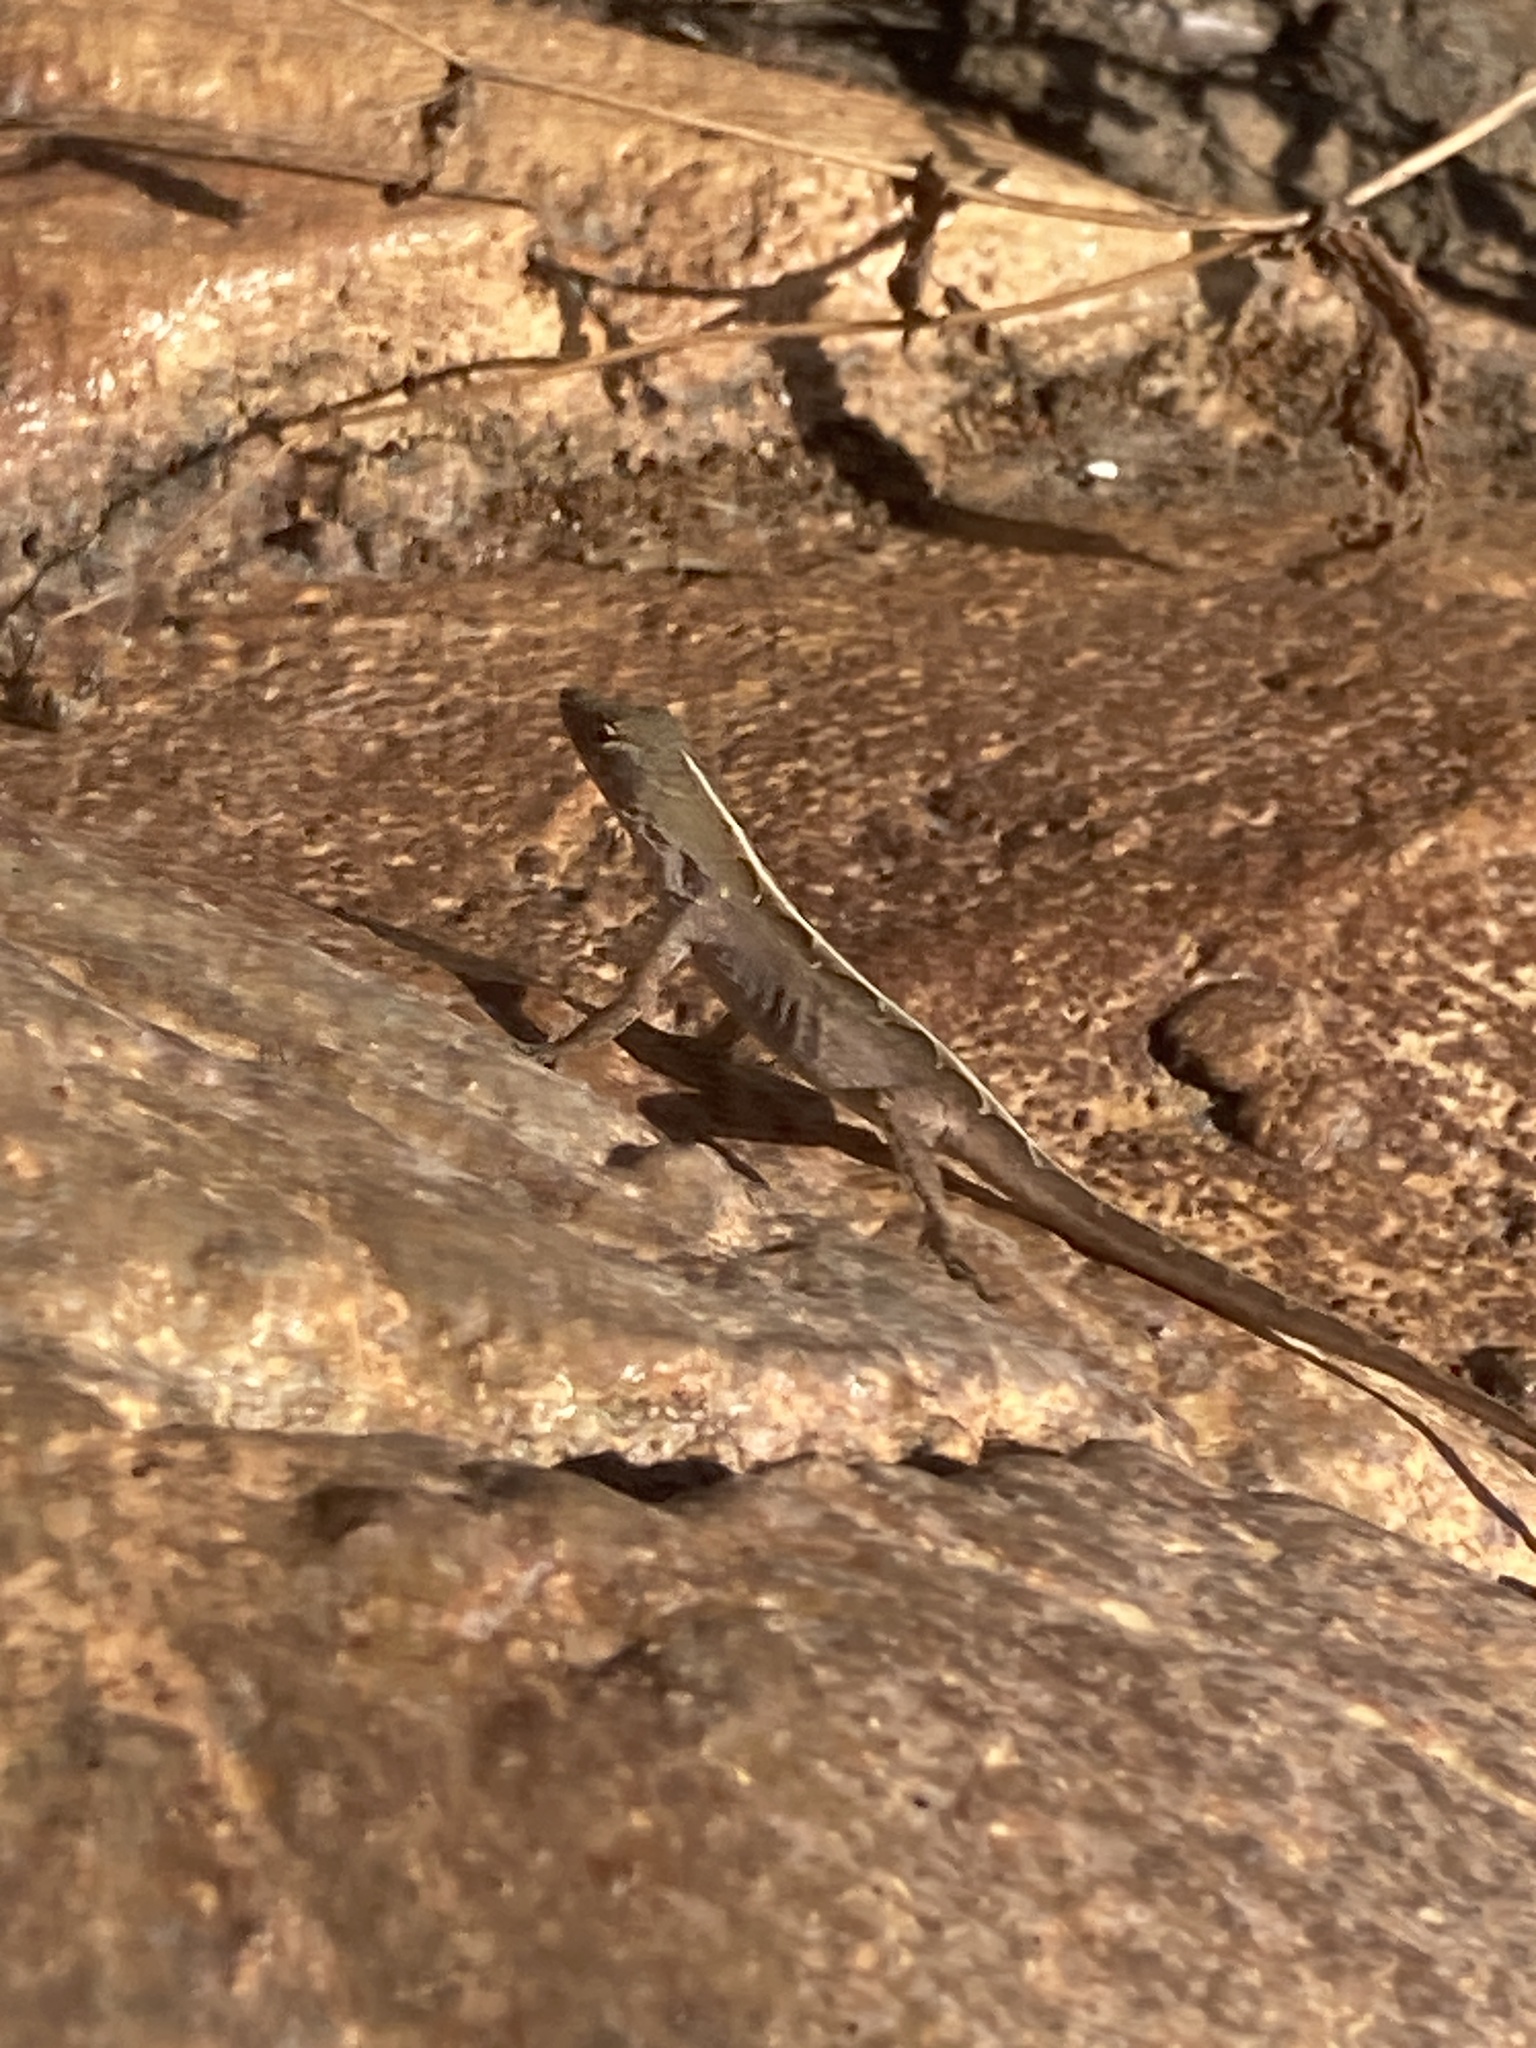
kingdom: Animalia
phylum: Chordata
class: Squamata
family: Dactyloidae
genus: Anolis
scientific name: Anolis sagrei
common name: Brown anole
